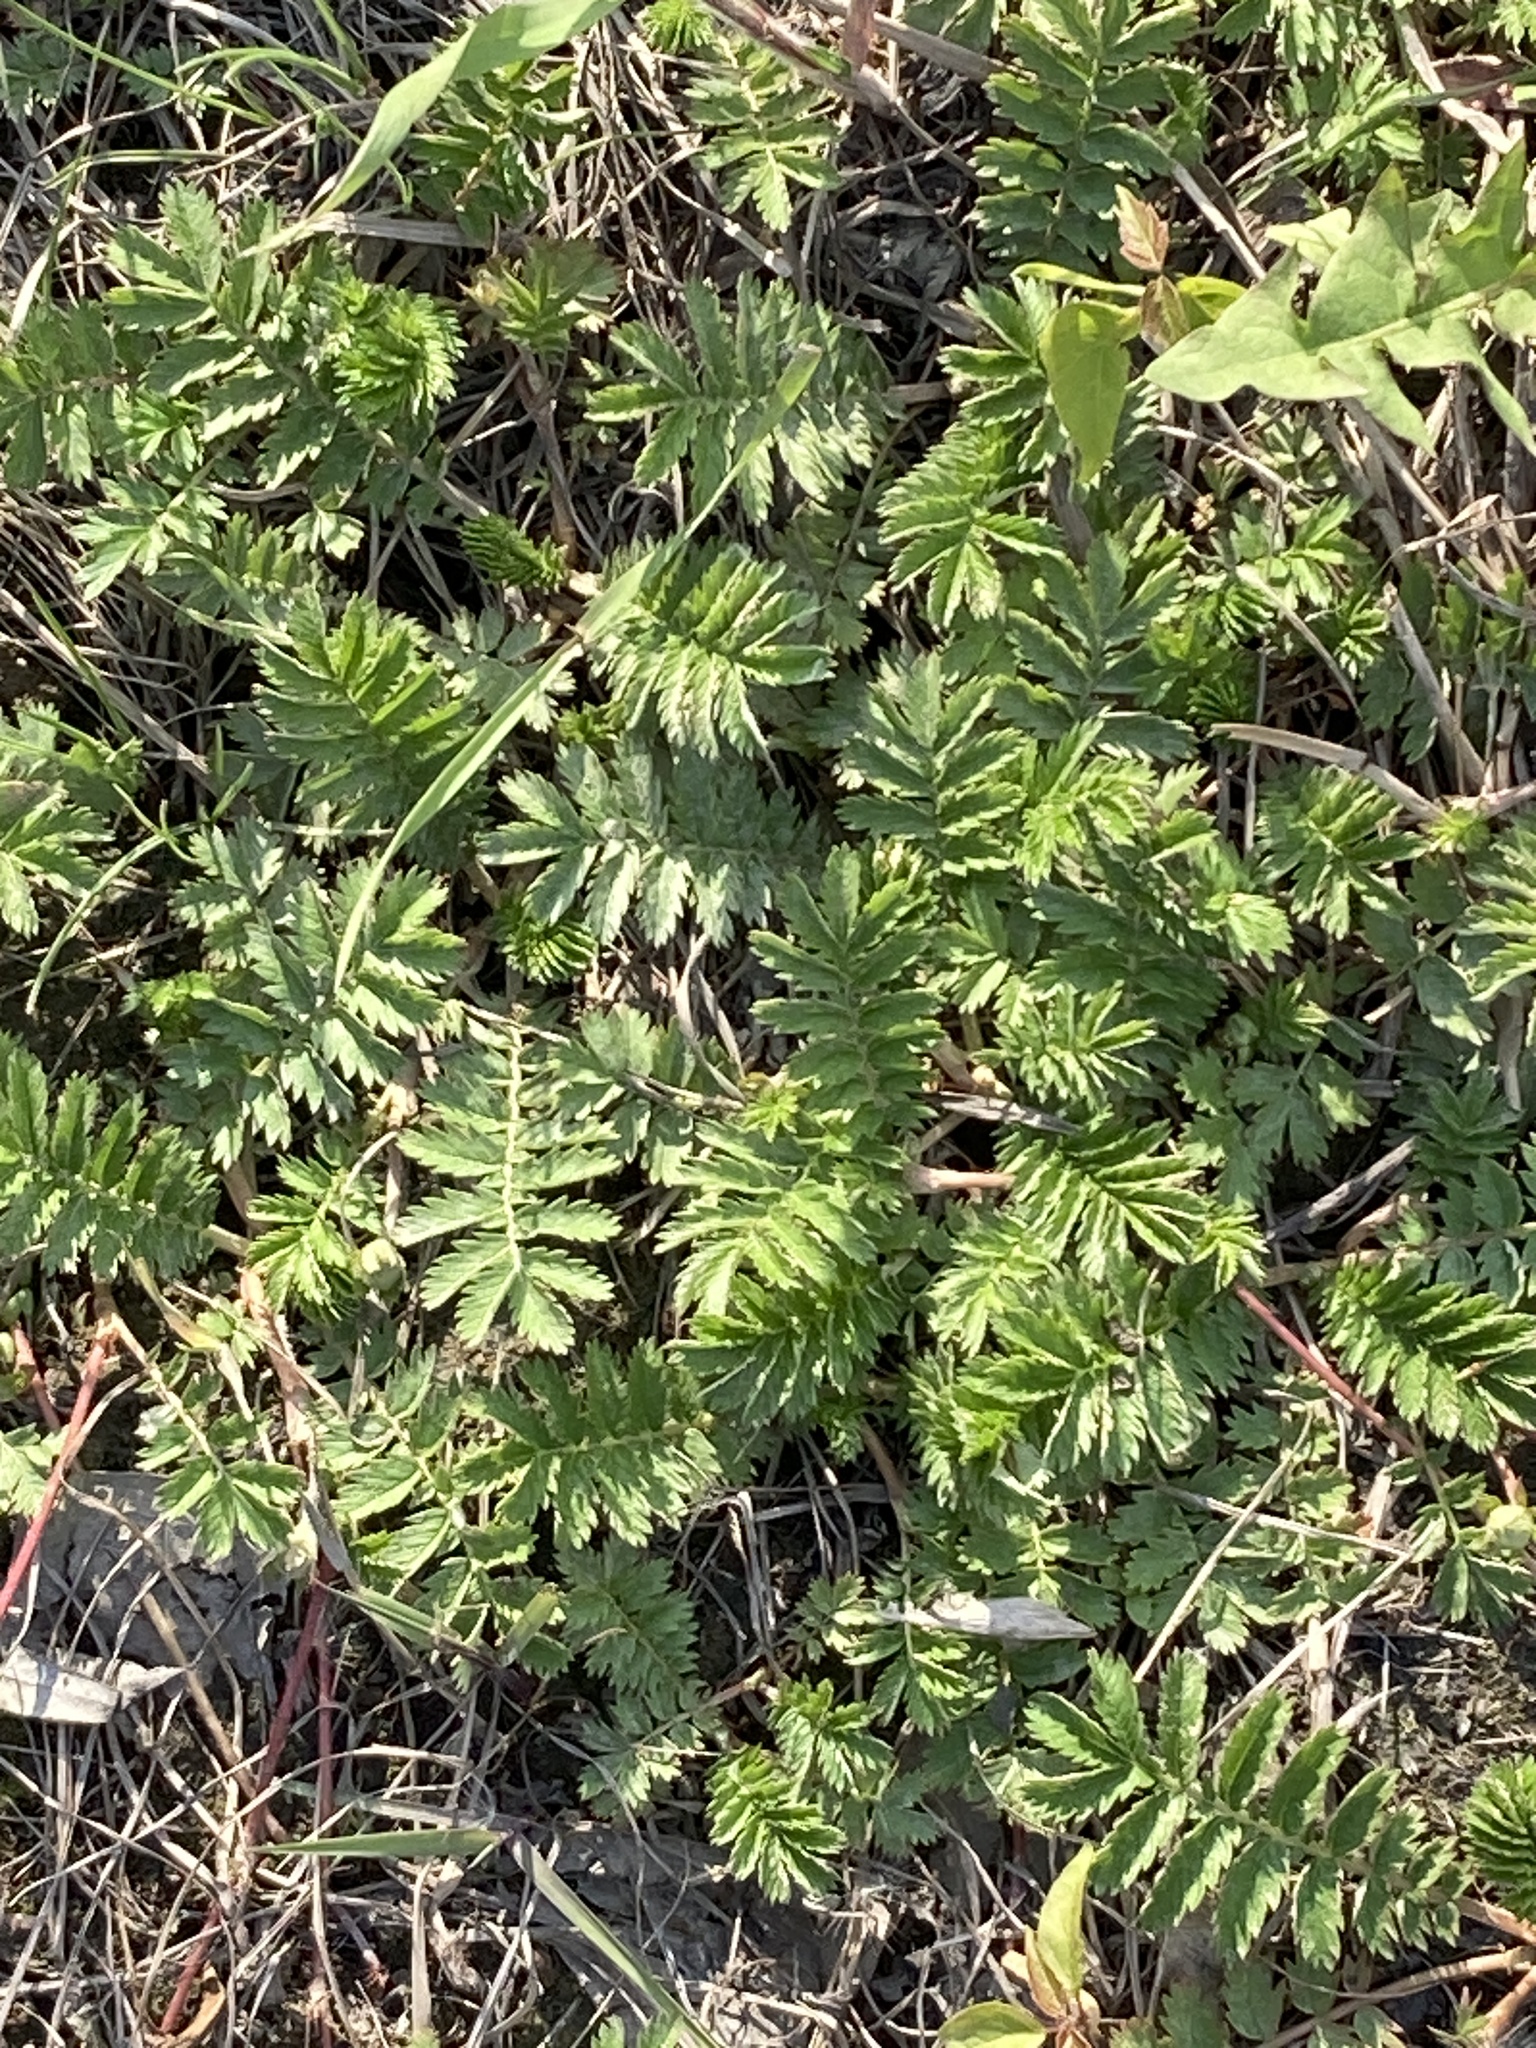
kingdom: Plantae
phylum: Tracheophyta
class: Magnoliopsida
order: Rosales
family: Rosaceae
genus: Argentina
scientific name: Argentina anserina
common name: Common silverweed
